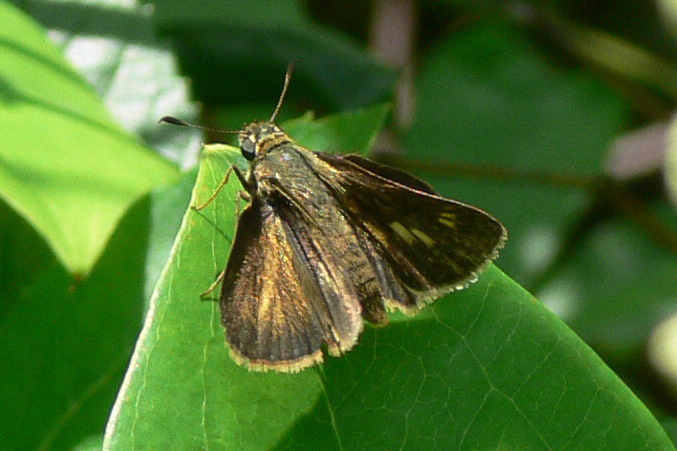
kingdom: Animalia
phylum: Arthropoda
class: Insecta
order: Lepidoptera
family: Hesperiidae
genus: Polites
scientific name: Polites egeremet
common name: Northern broken-dash
